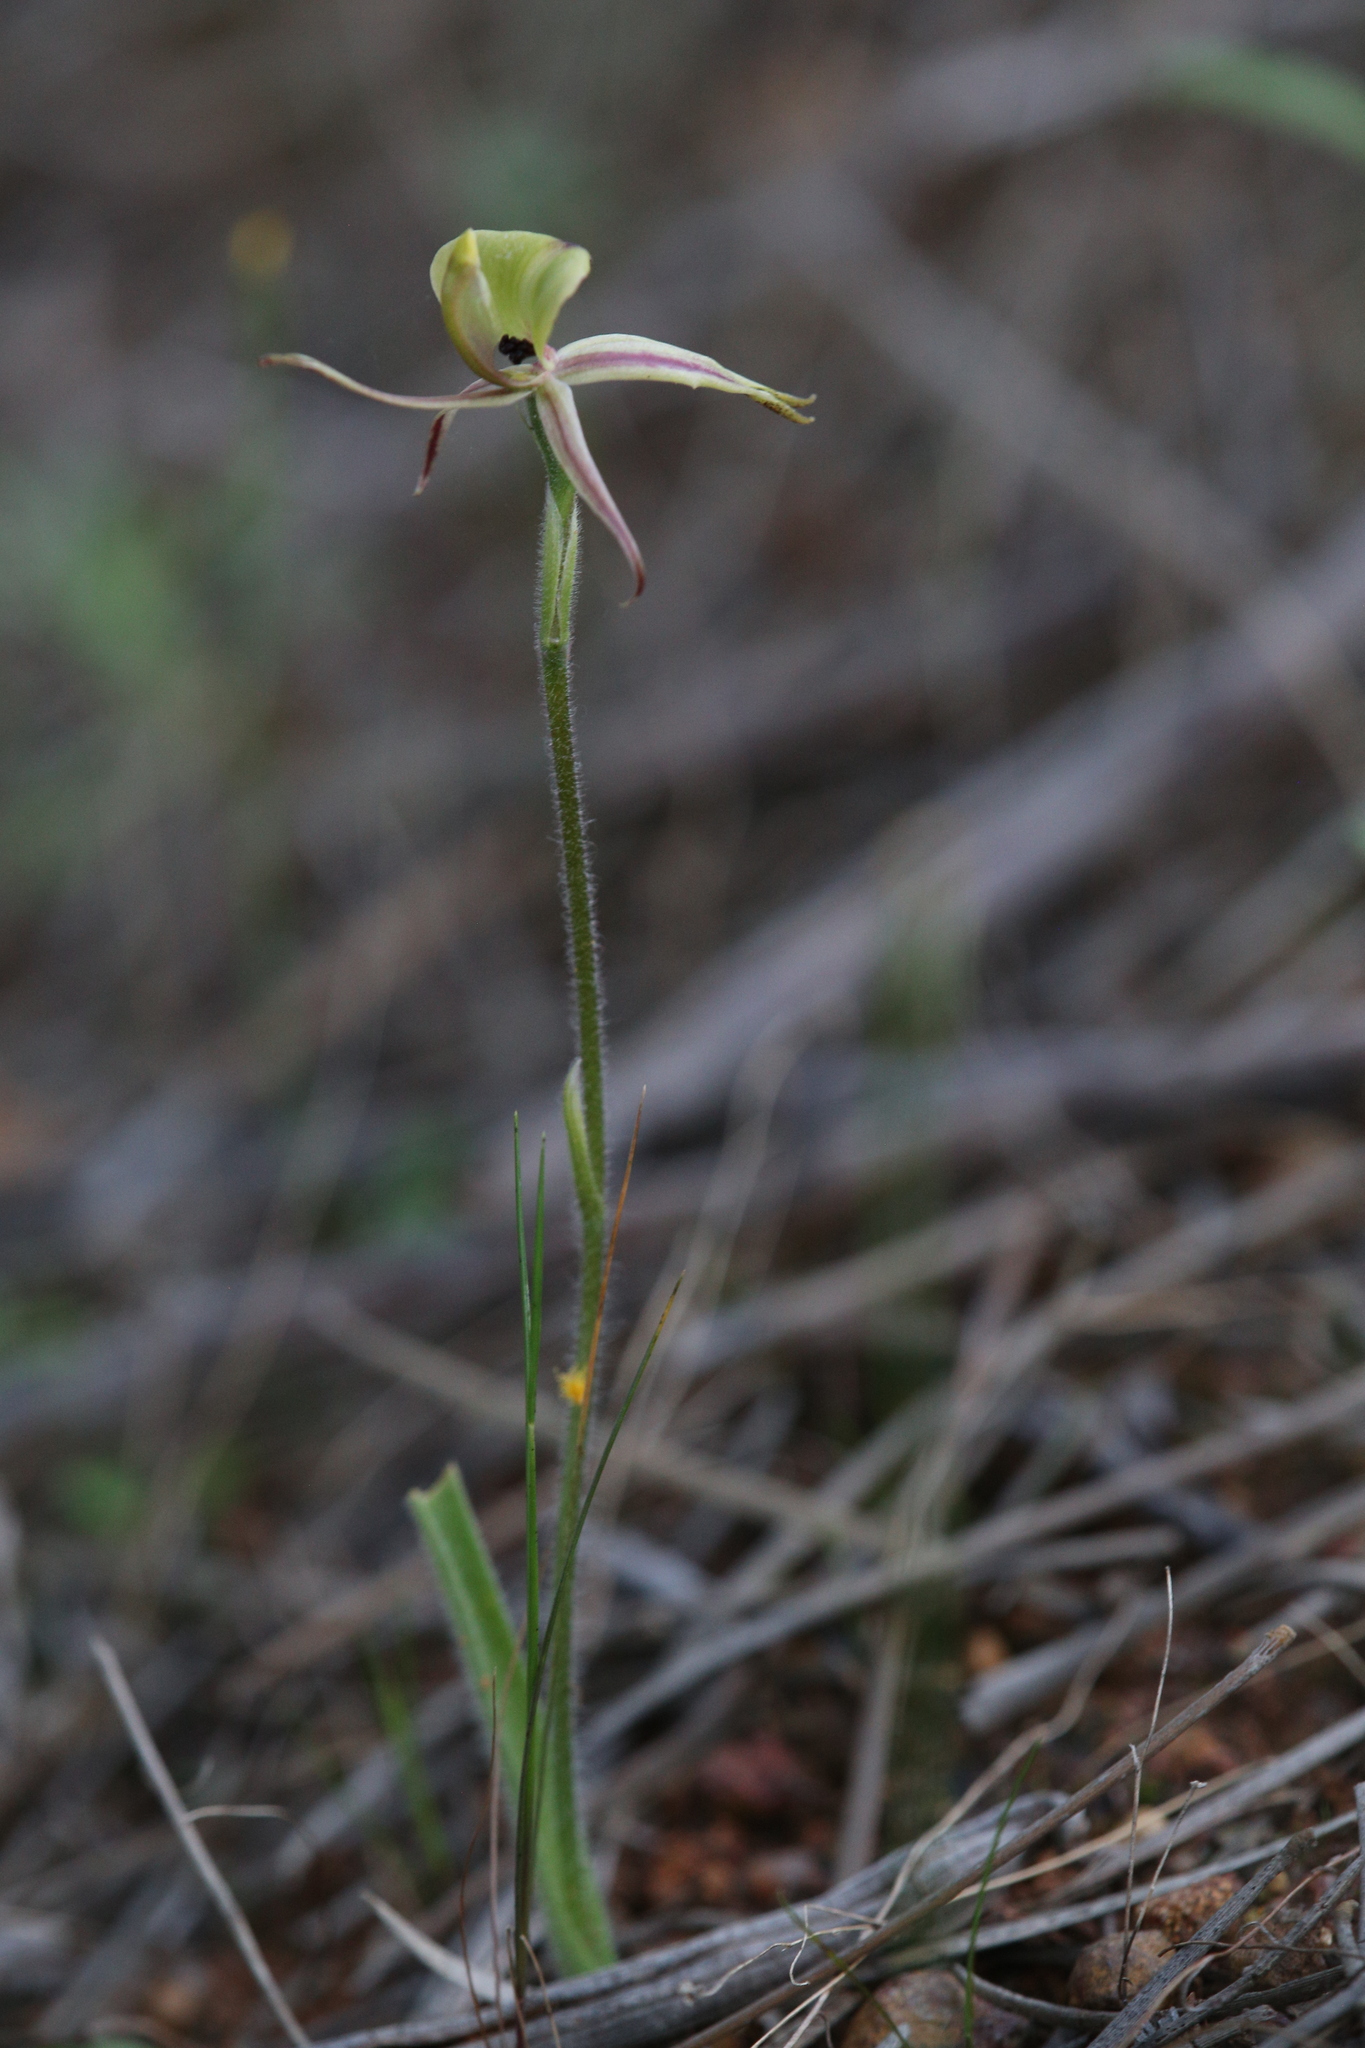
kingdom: Plantae
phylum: Tracheophyta
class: Liliopsida
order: Asparagales
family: Orchidaceae
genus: Caladenia
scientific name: Caladenia roei
